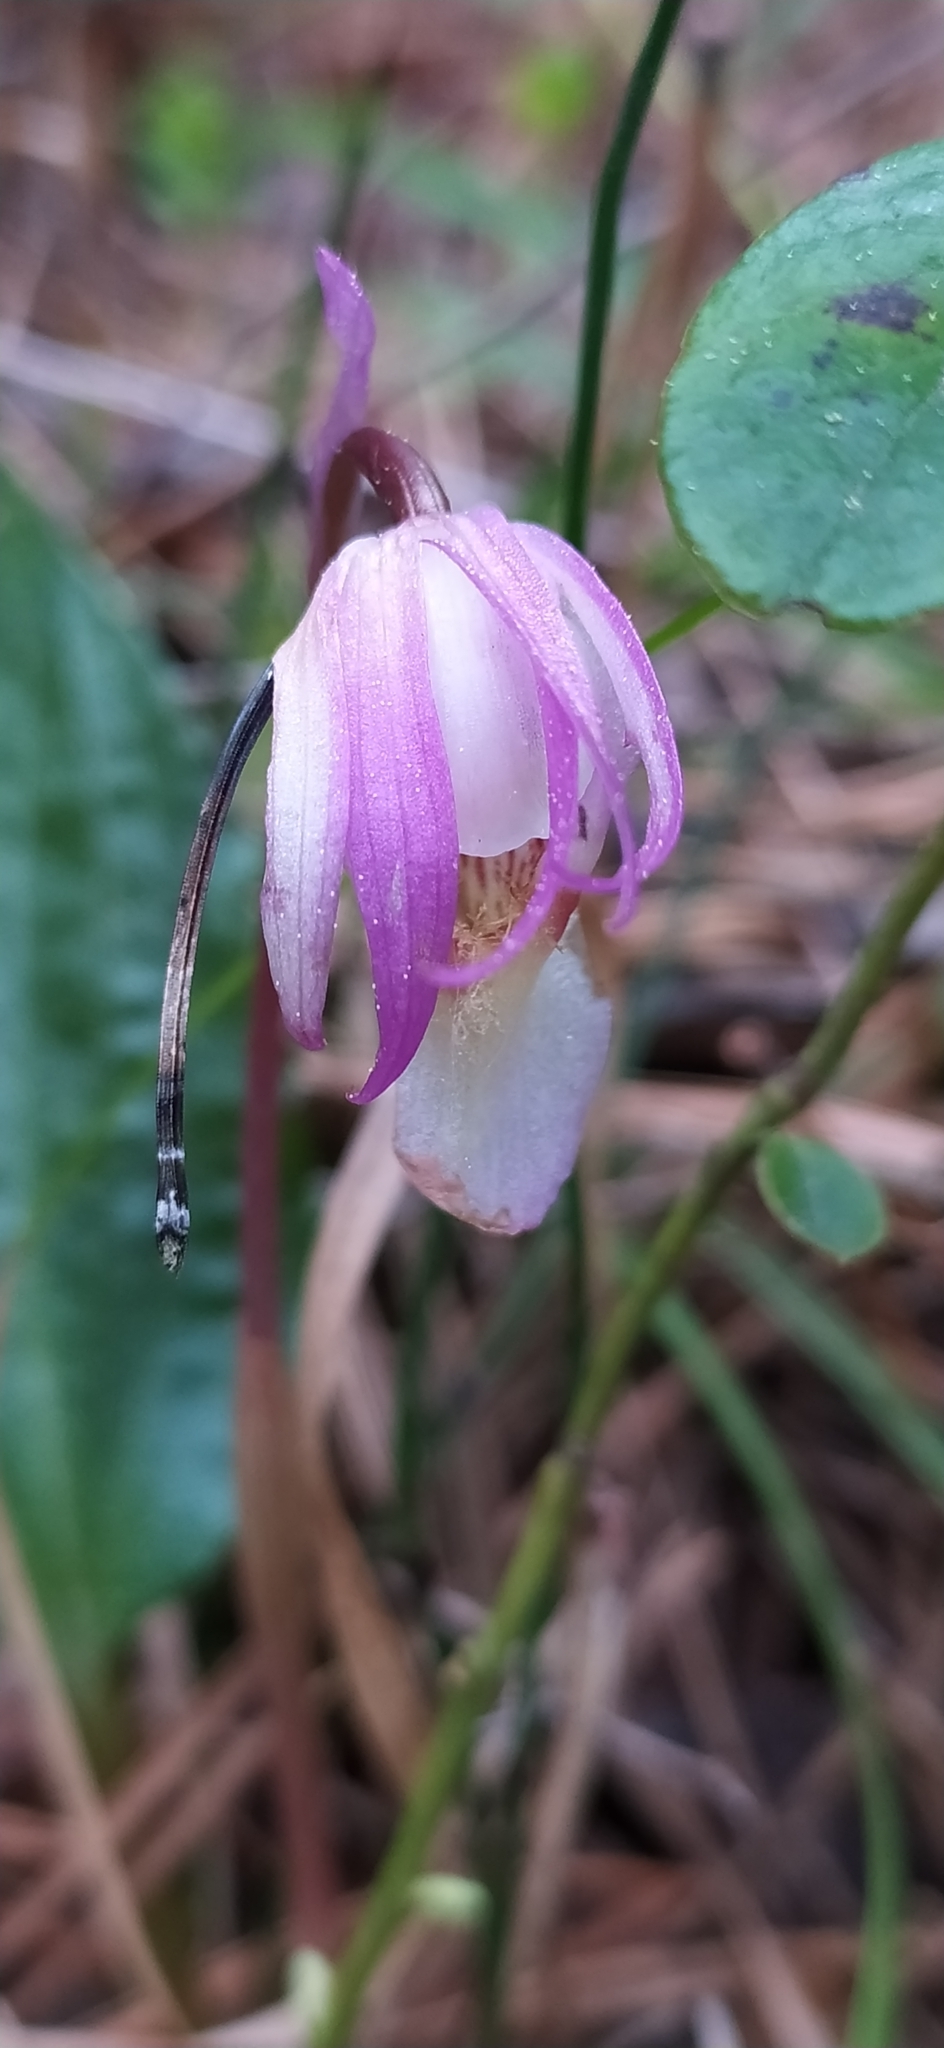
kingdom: Plantae
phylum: Tracheophyta
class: Liliopsida
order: Asparagales
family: Orchidaceae
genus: Calypso
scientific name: Calypso bulbosa
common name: Calypso
